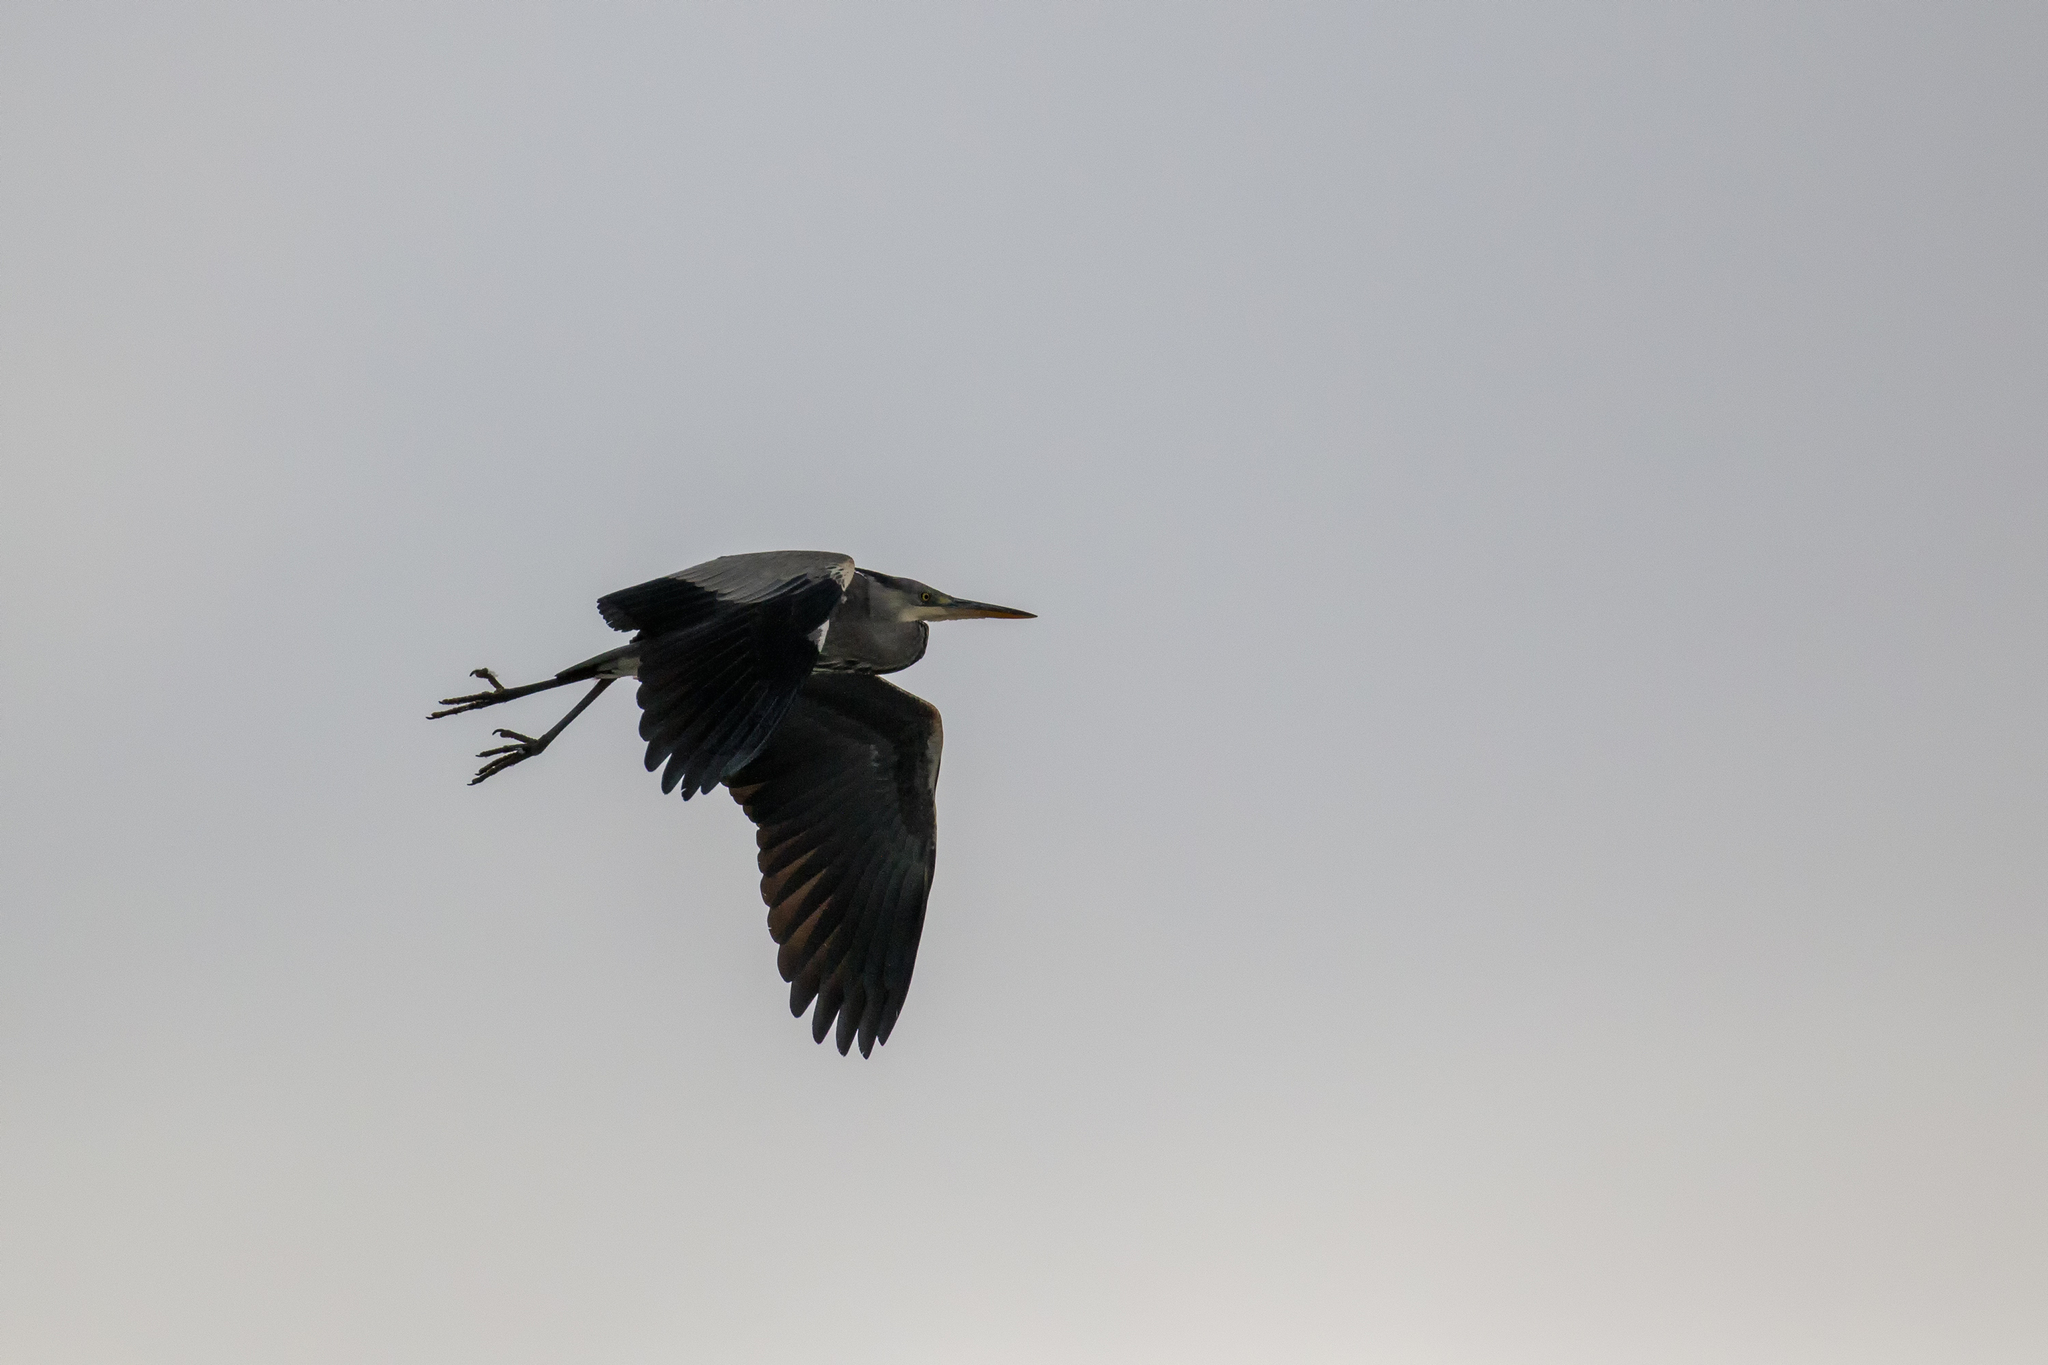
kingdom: Animalia
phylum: Chordata
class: Aves
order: Pelecaniformes
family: Ardeidae
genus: Ardea
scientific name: Ardea cinerea
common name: Grey heron
